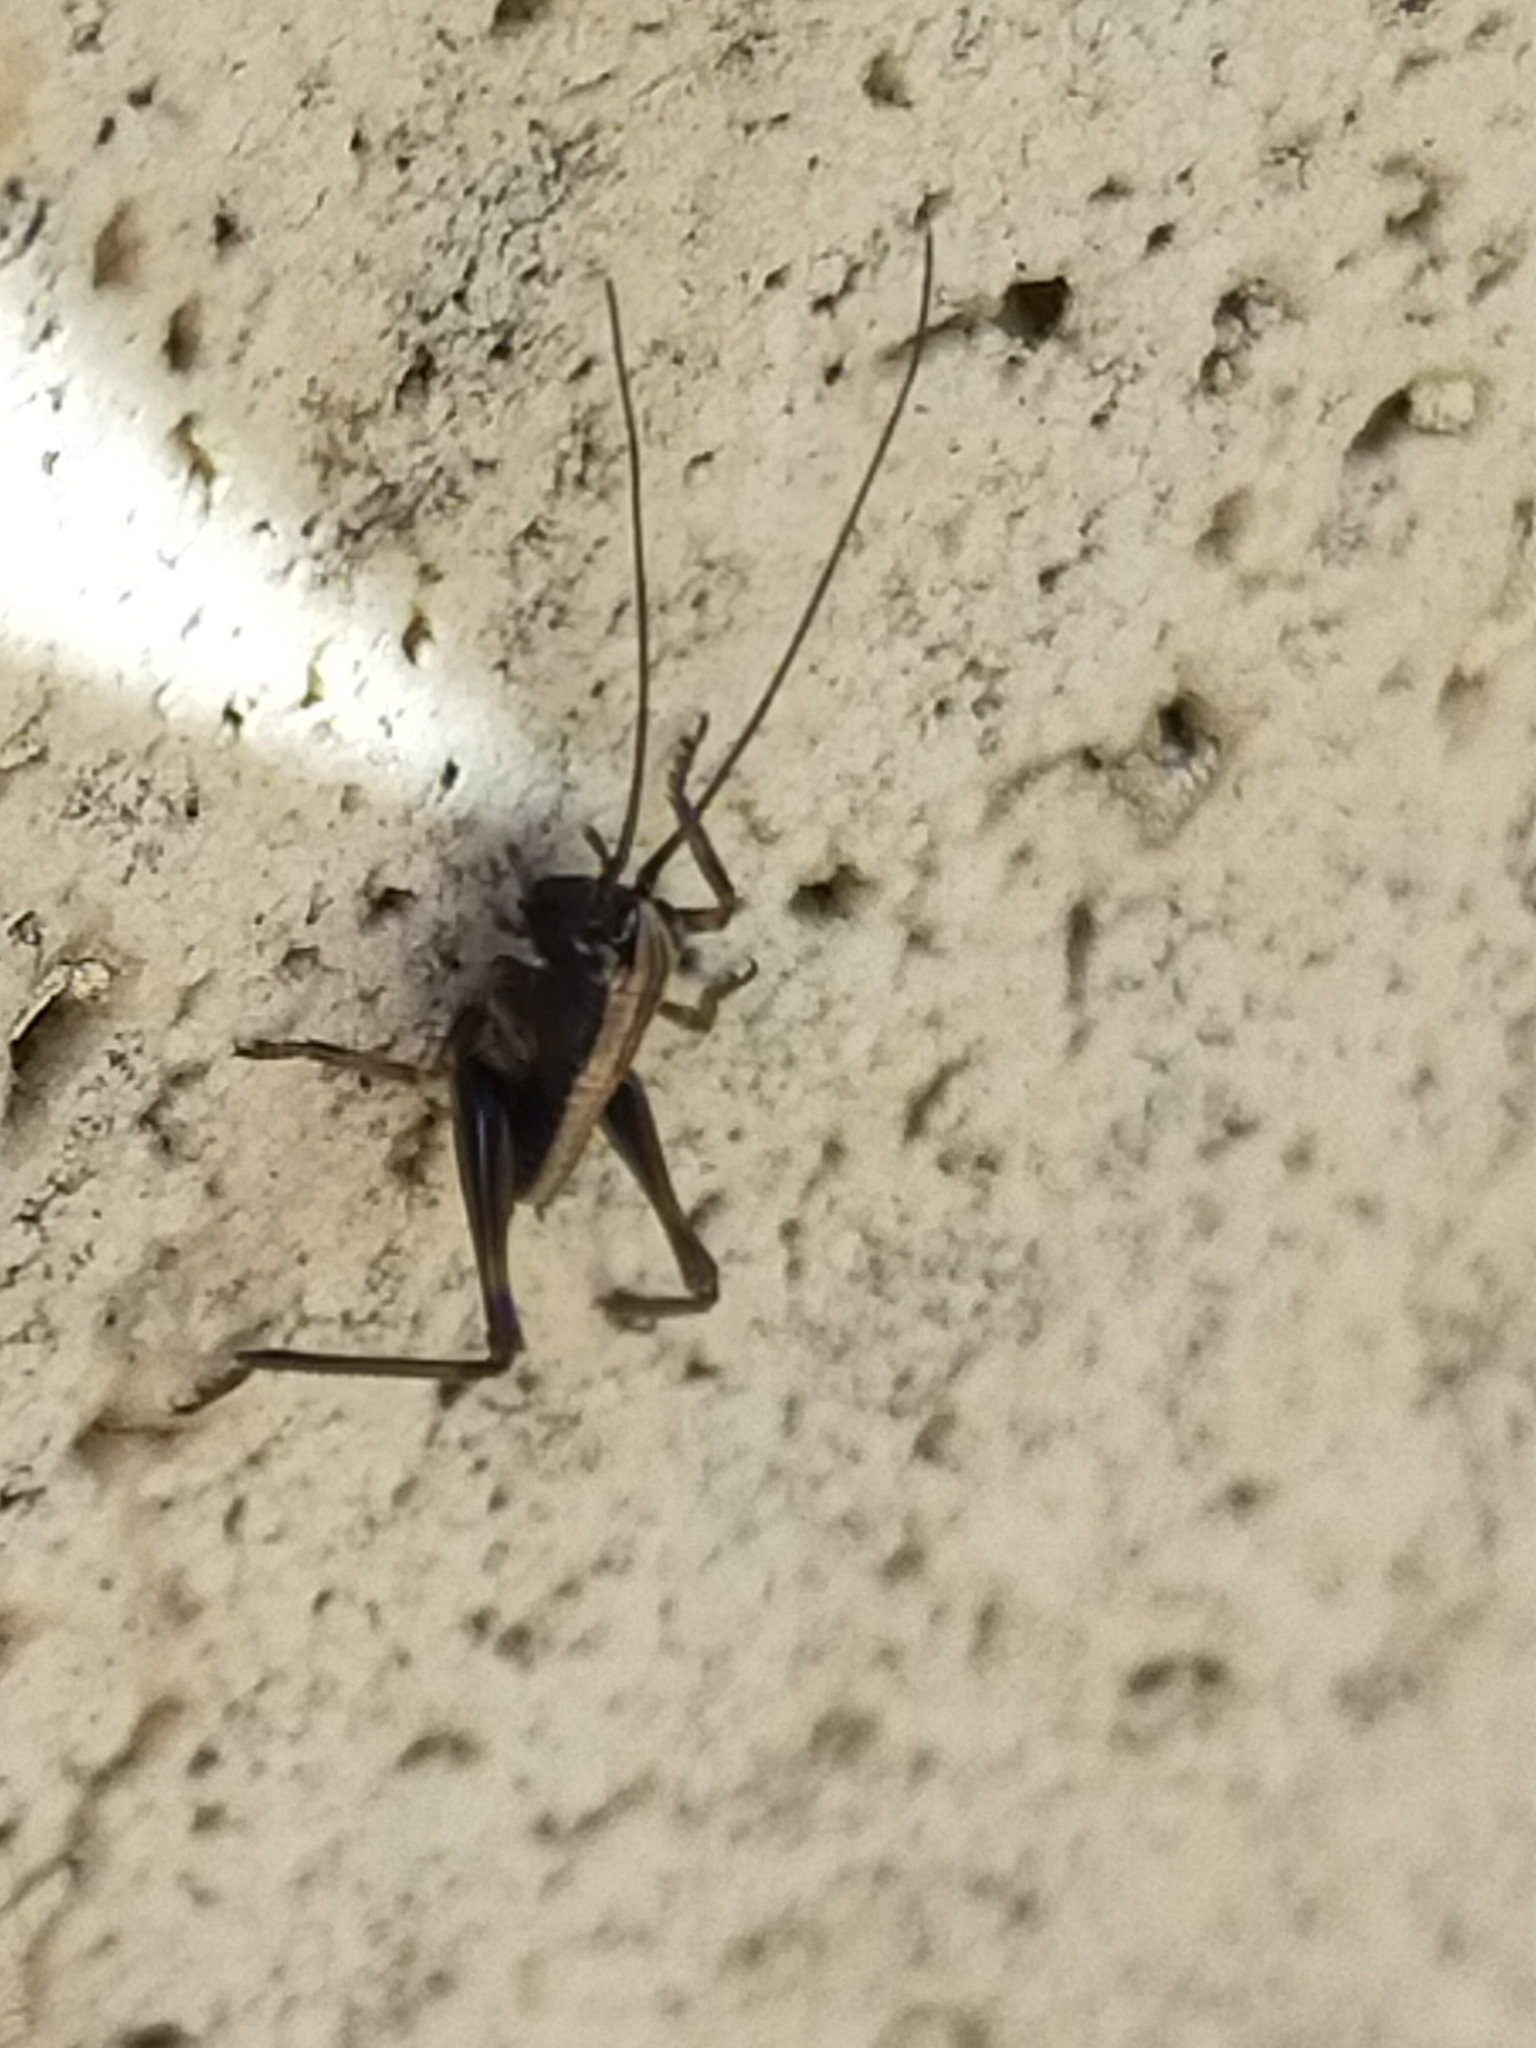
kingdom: Animalia
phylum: Arthropoda
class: Insecta
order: Orthoptera
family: Tettigoniidae
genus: Pholidoptera
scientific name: Pholidoptera
